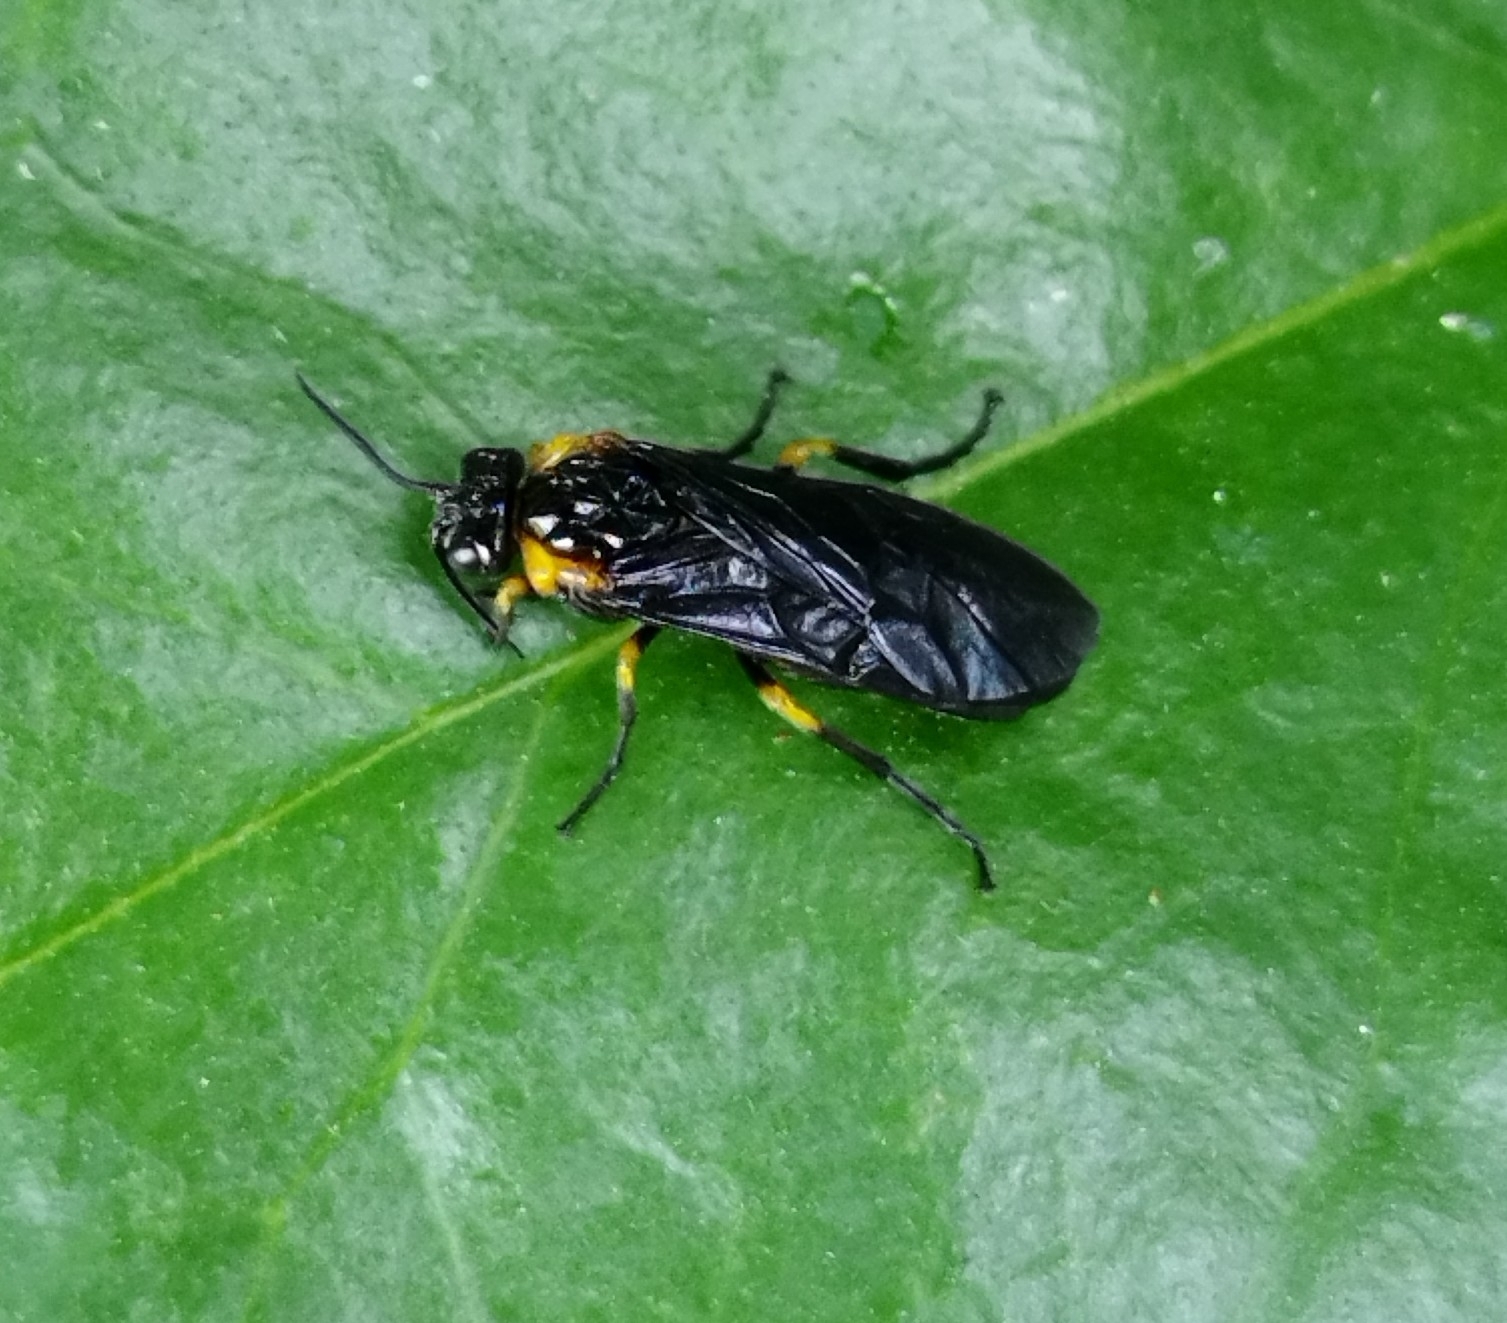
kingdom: Animalia
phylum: Arthropoda
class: Insecta
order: Hymenoptera
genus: Adurgoa
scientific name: Adurgoa
